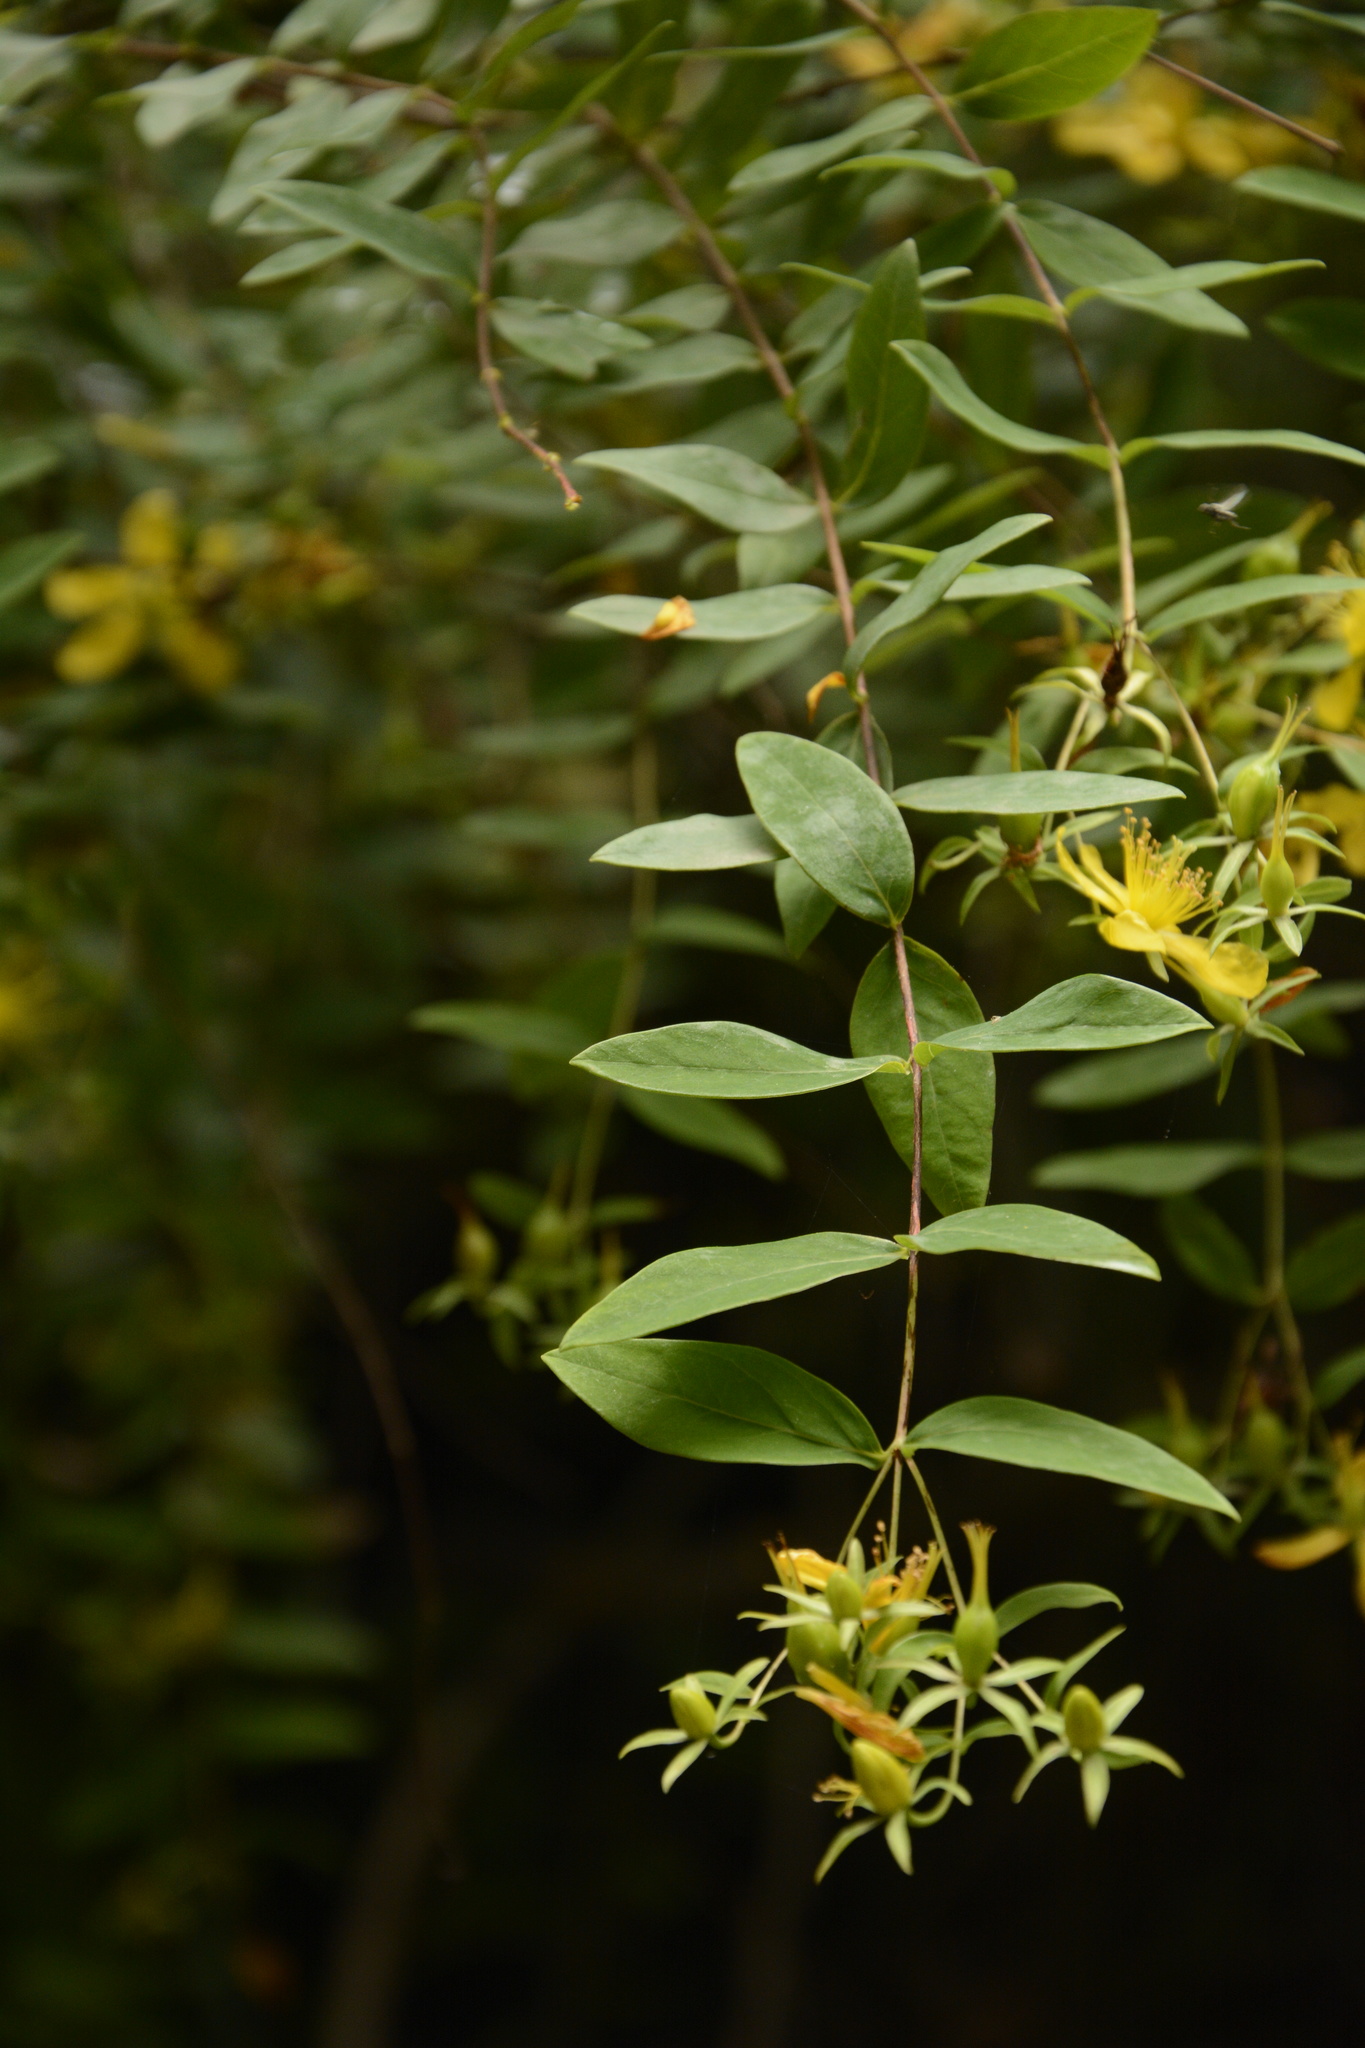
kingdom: Plantae
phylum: Tracheophyta
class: Magnoliopsida
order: Malpighiales
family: Hypericaceae
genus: Hypericum
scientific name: Hypericum oblongifolium
